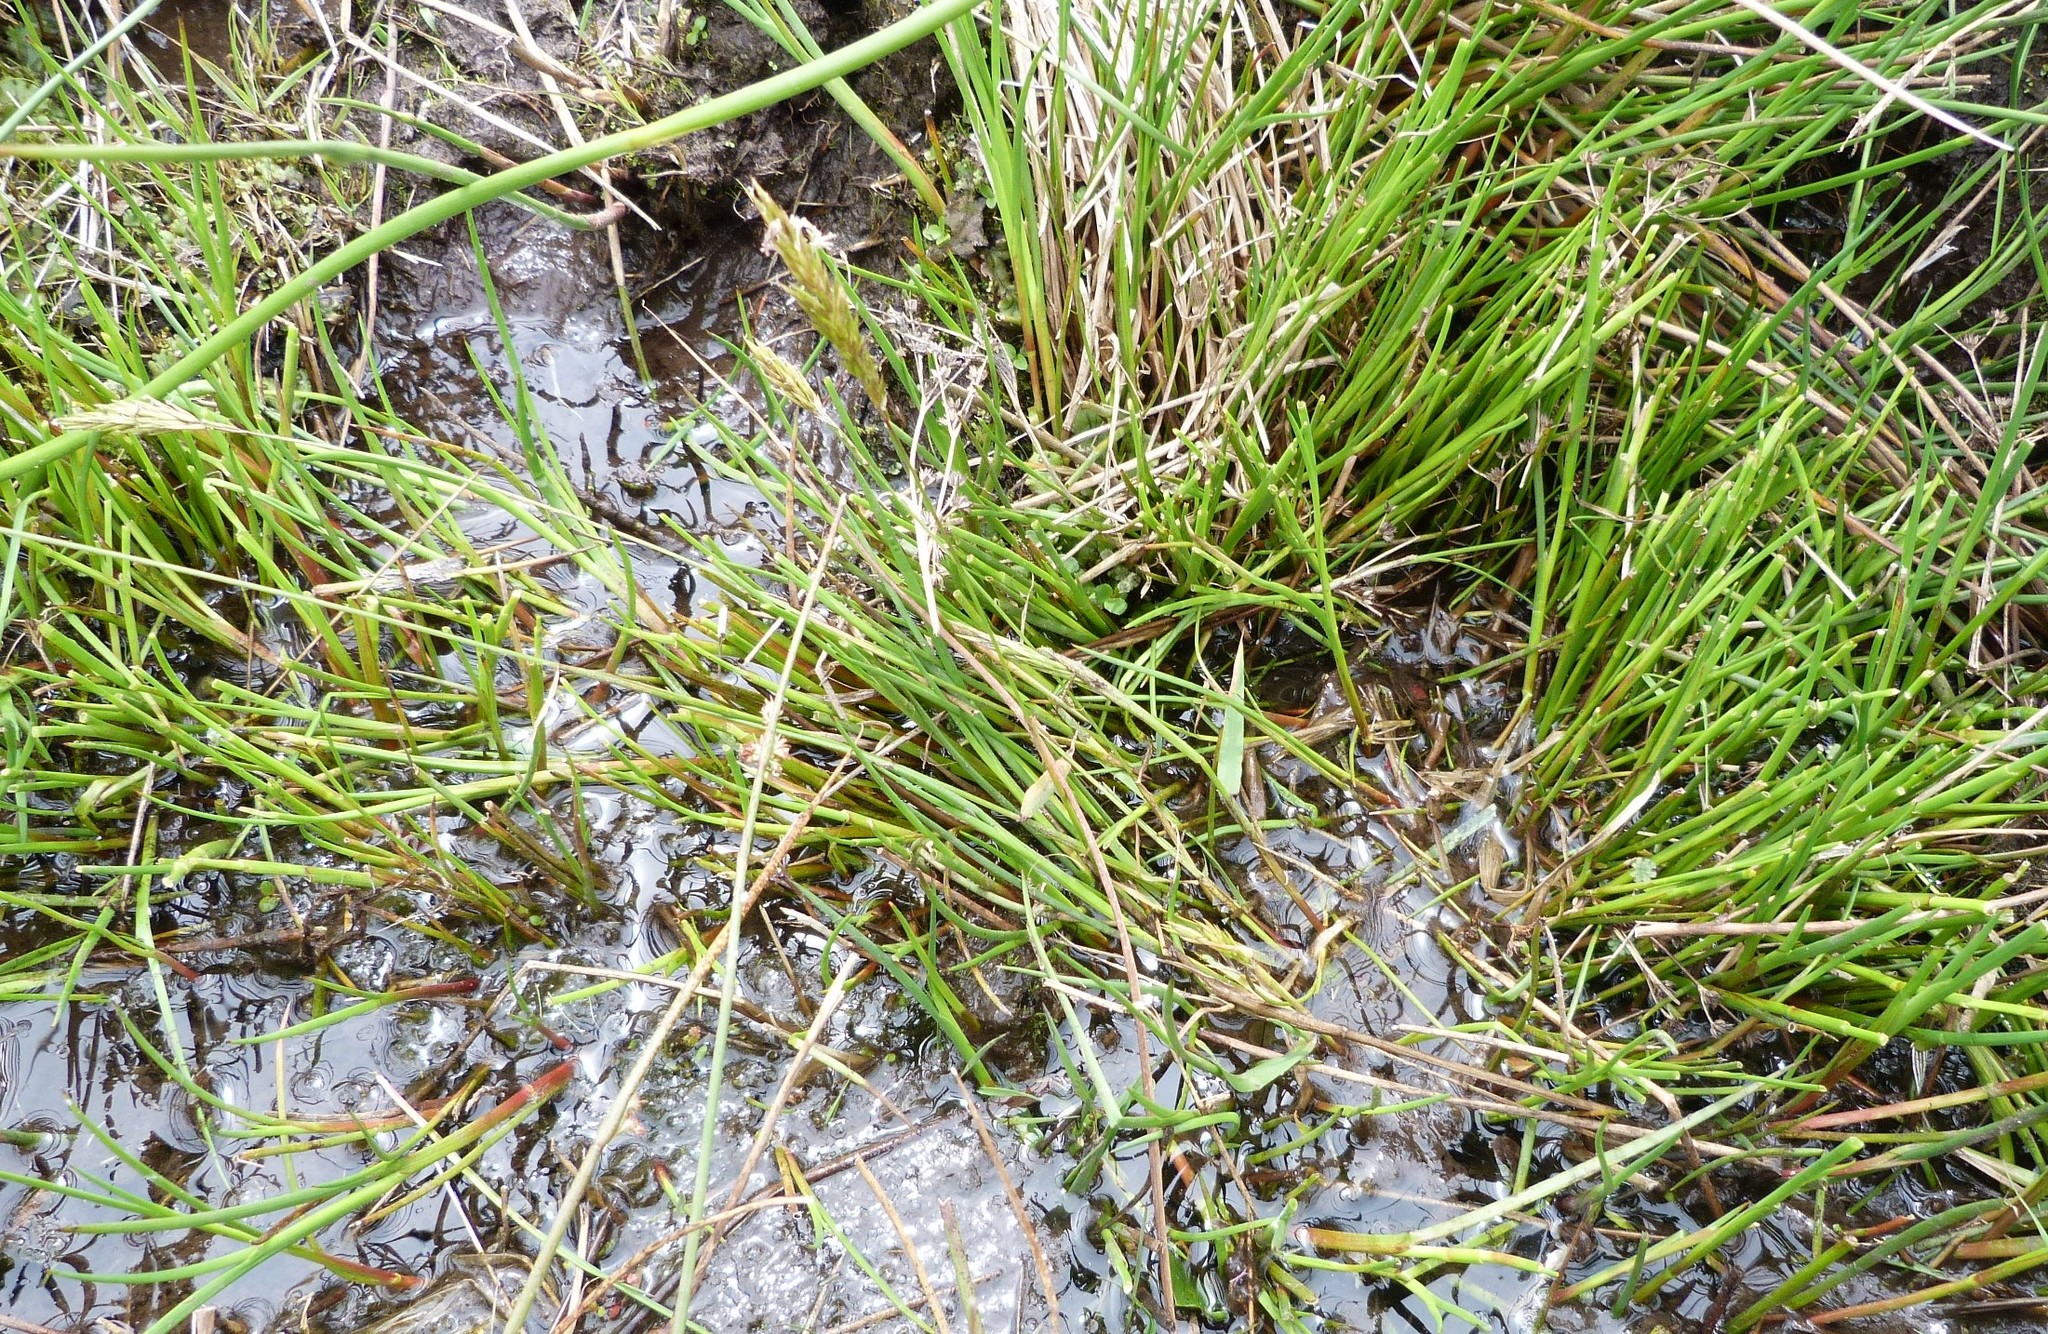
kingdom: Plantae
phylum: Tracheophyta
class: Liliopsida
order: Poales
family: Juncaceae
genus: Juncus
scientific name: Juncus articulatus
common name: Jointed rush
